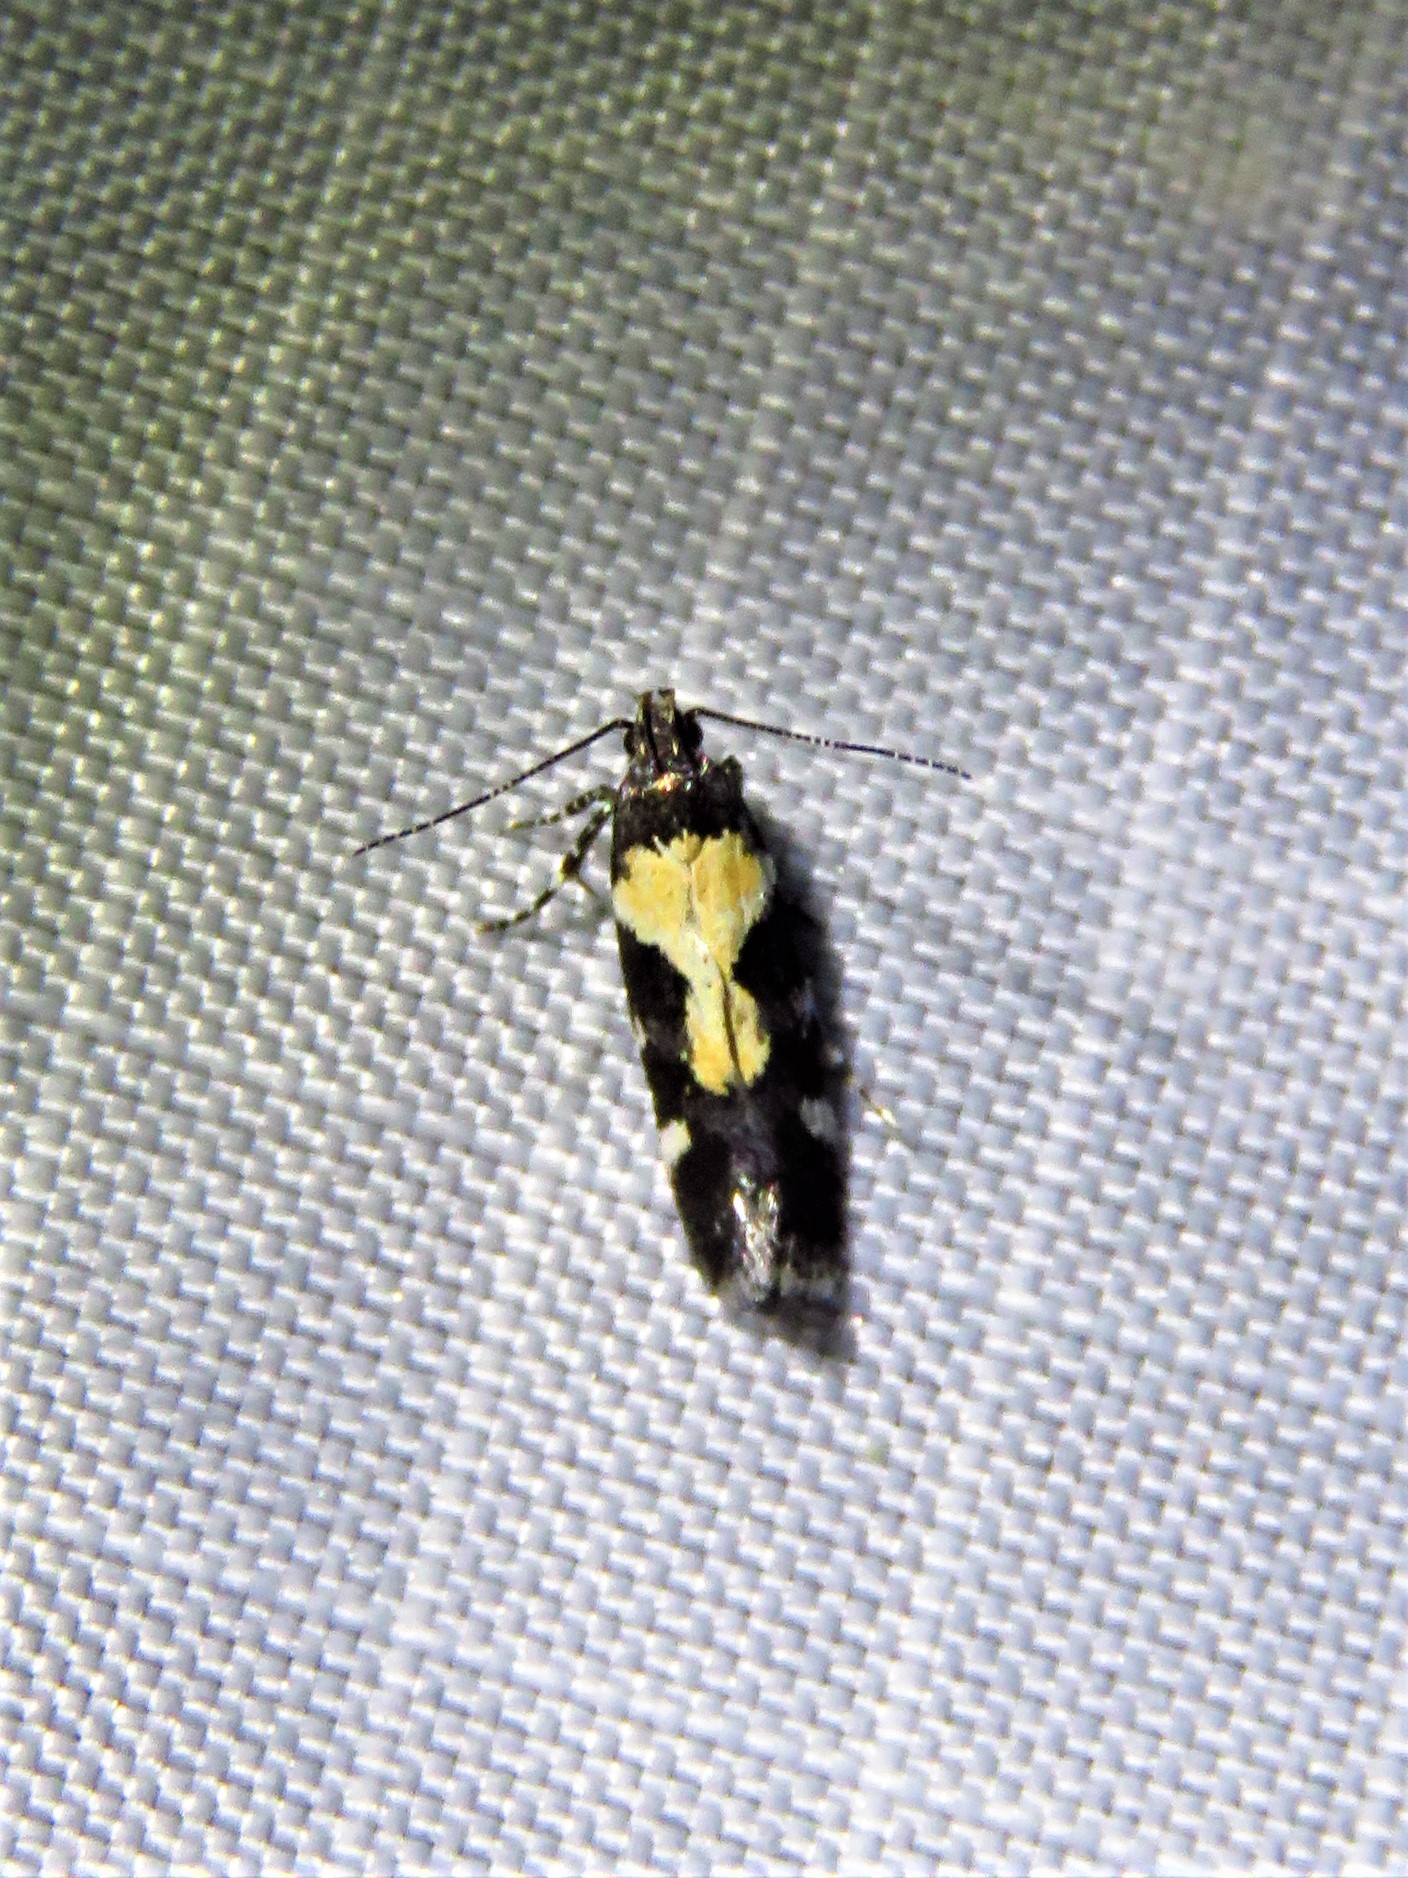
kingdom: Animalia
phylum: Arthropoda
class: Insecta
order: Lepidoptera
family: Gelechiidae
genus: Stegasta
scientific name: Stegasta bosqueella
